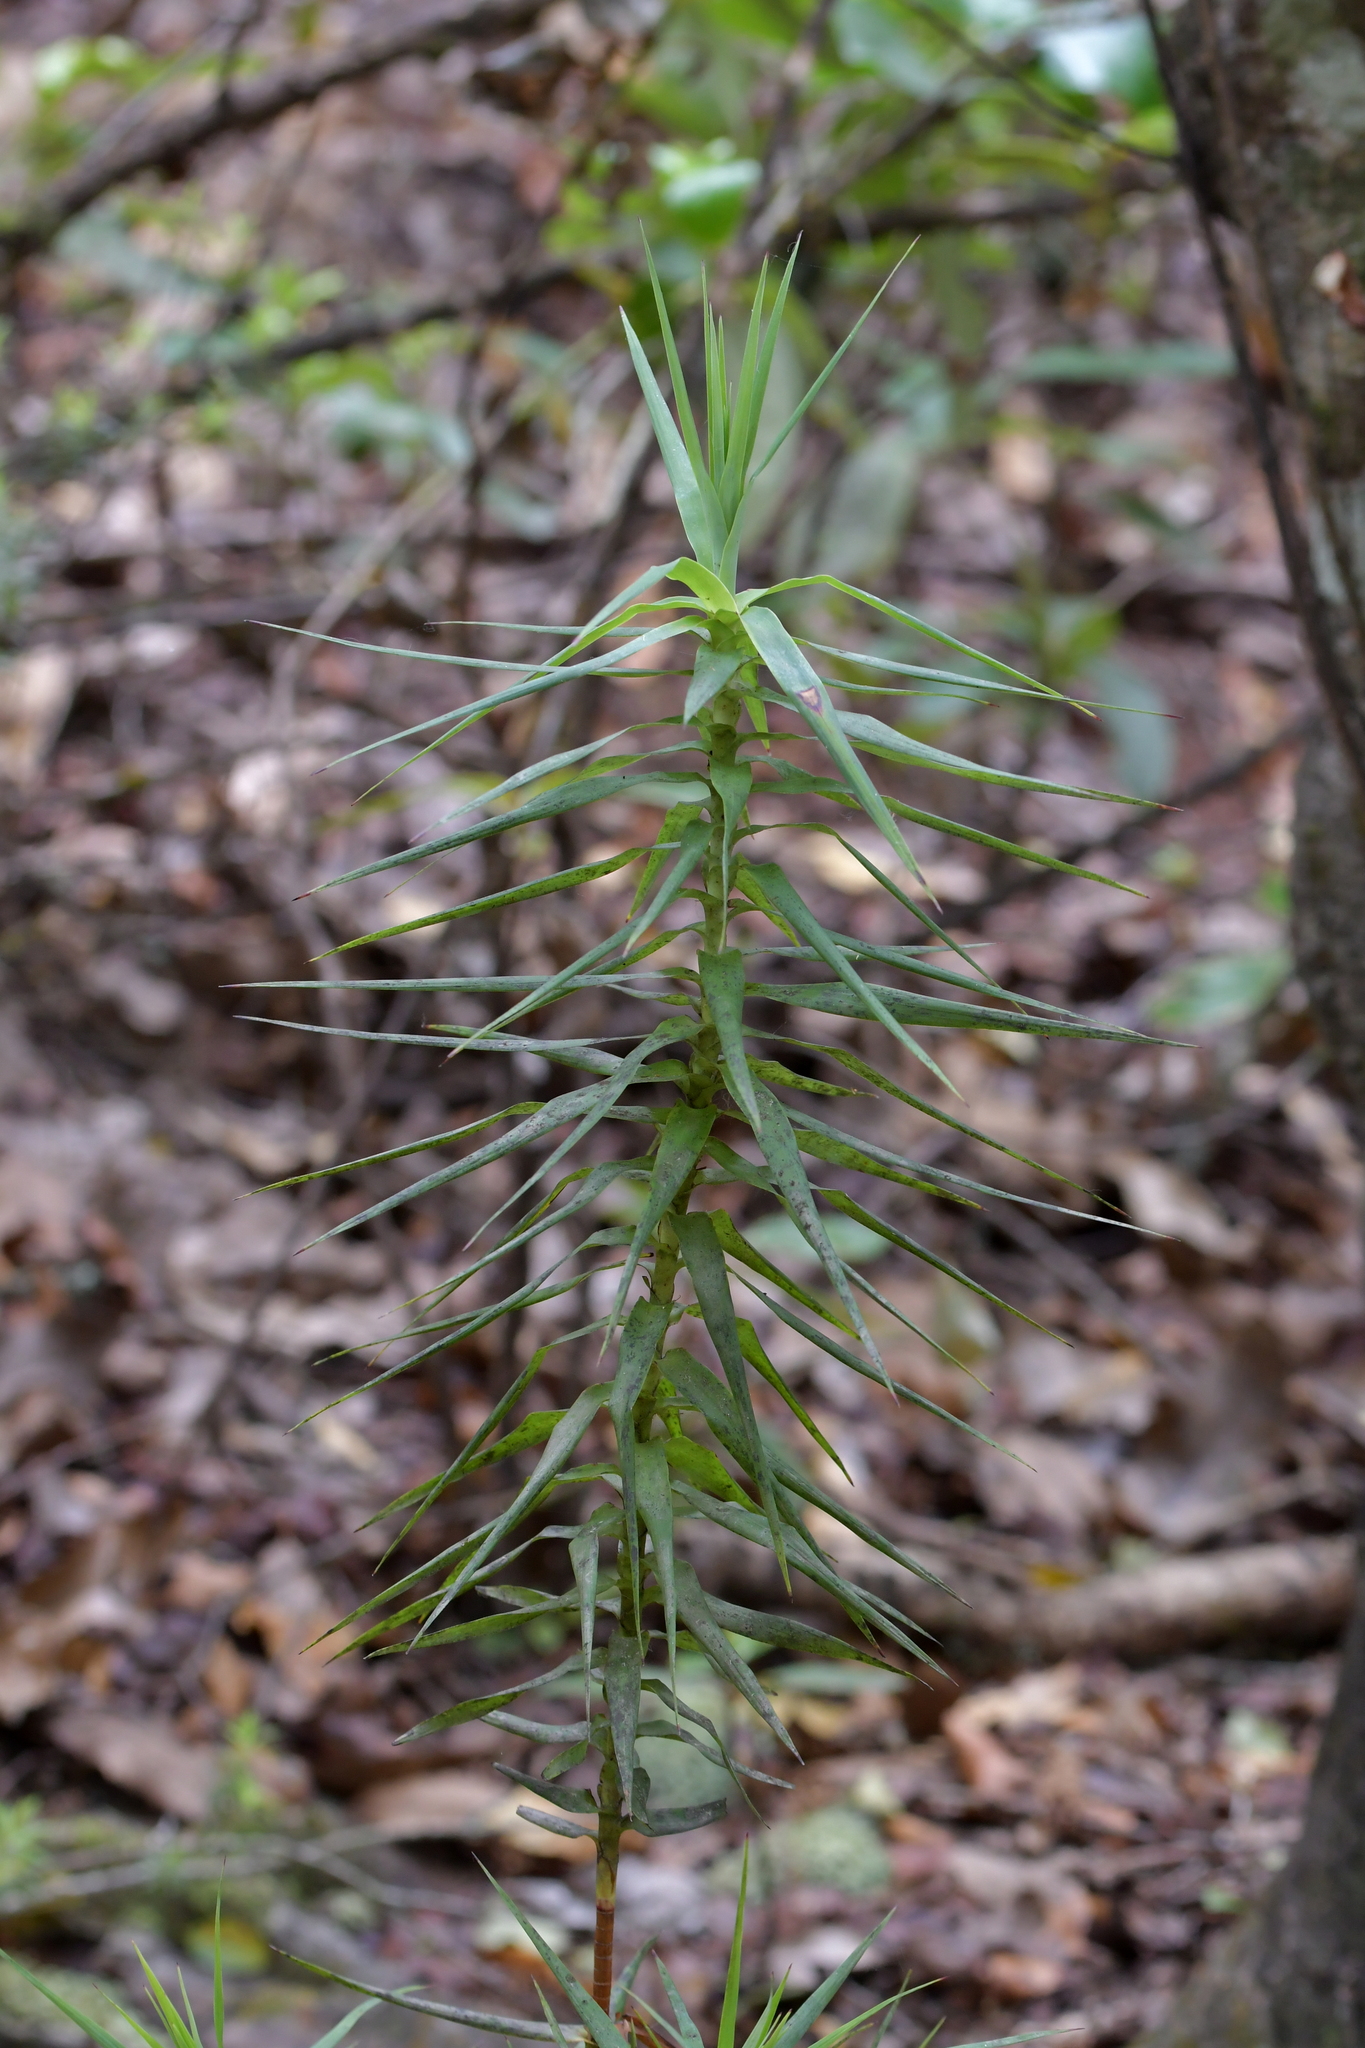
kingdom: Plantae
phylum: Tracheophyta
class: Magnoliopsida
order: Ericales
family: Ericaceae
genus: Dracophyllum
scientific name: Dracophyllum strictum
